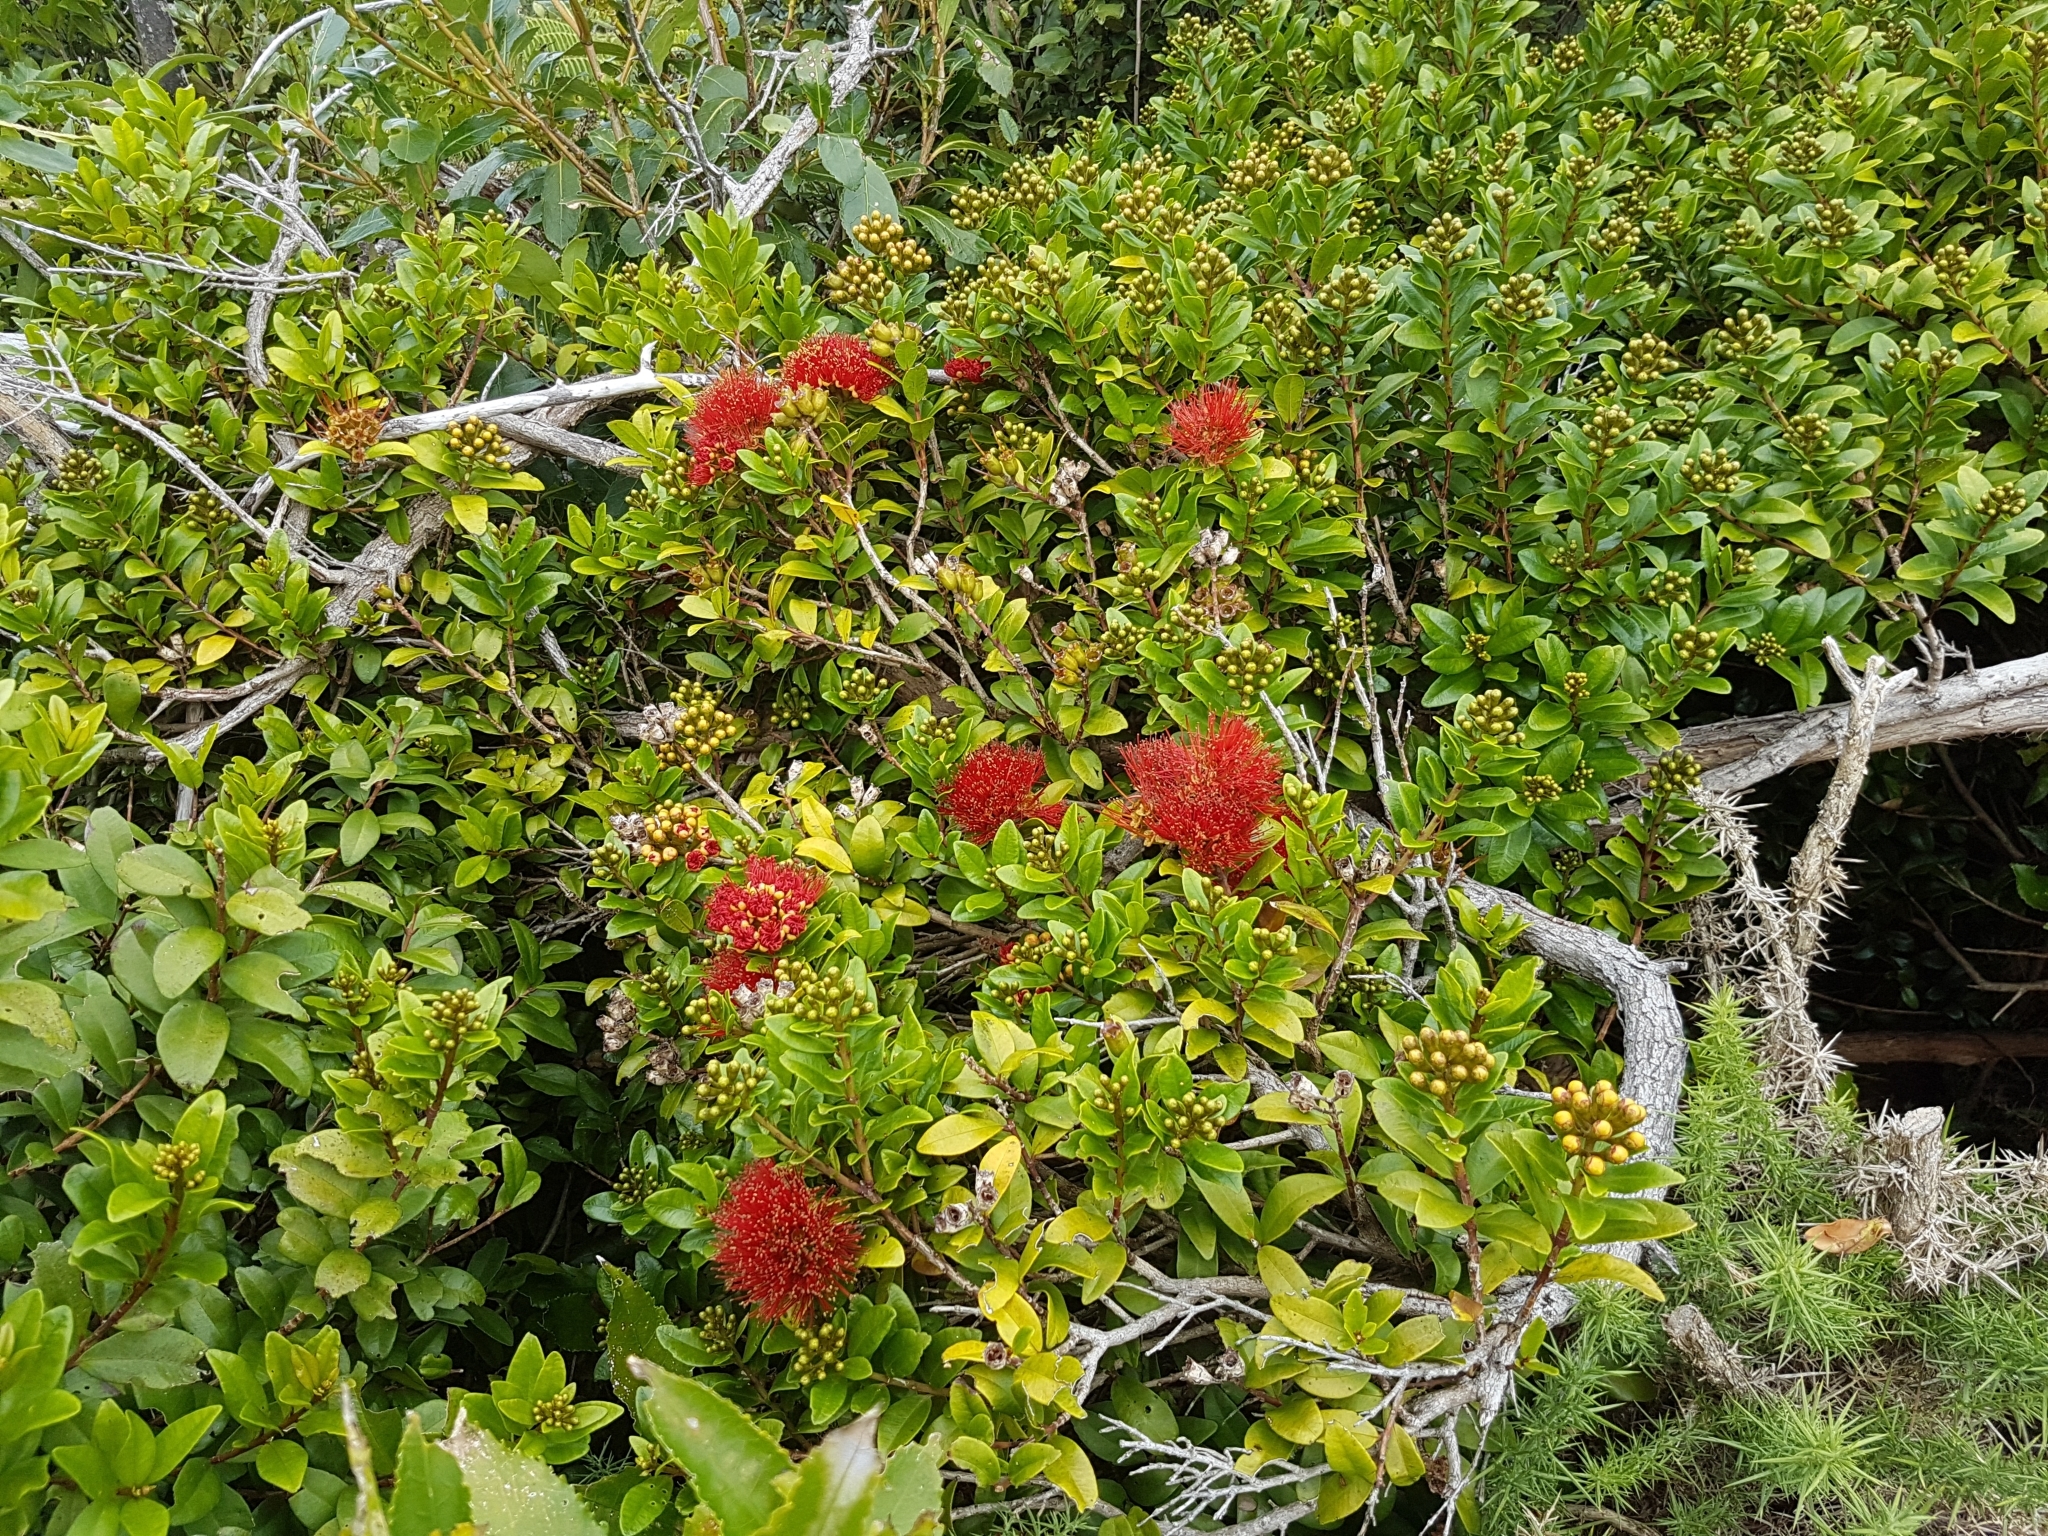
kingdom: Plantae
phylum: Tracheophyta
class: Magnoliopsida
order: Myrtales
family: Myrtaceae
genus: Metrosideros
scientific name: Metrosideros fulgens
